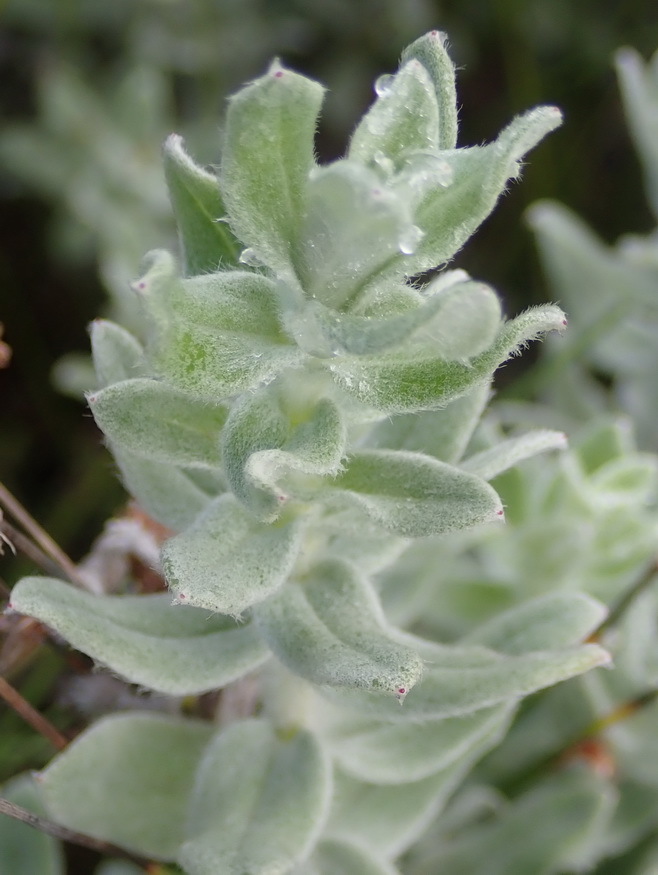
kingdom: Plantae
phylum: Tracheophyta
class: Magnoliopsida
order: Asterales
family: Asteraceae
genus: Helichrysum
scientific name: Helichrysum dasyanthum
